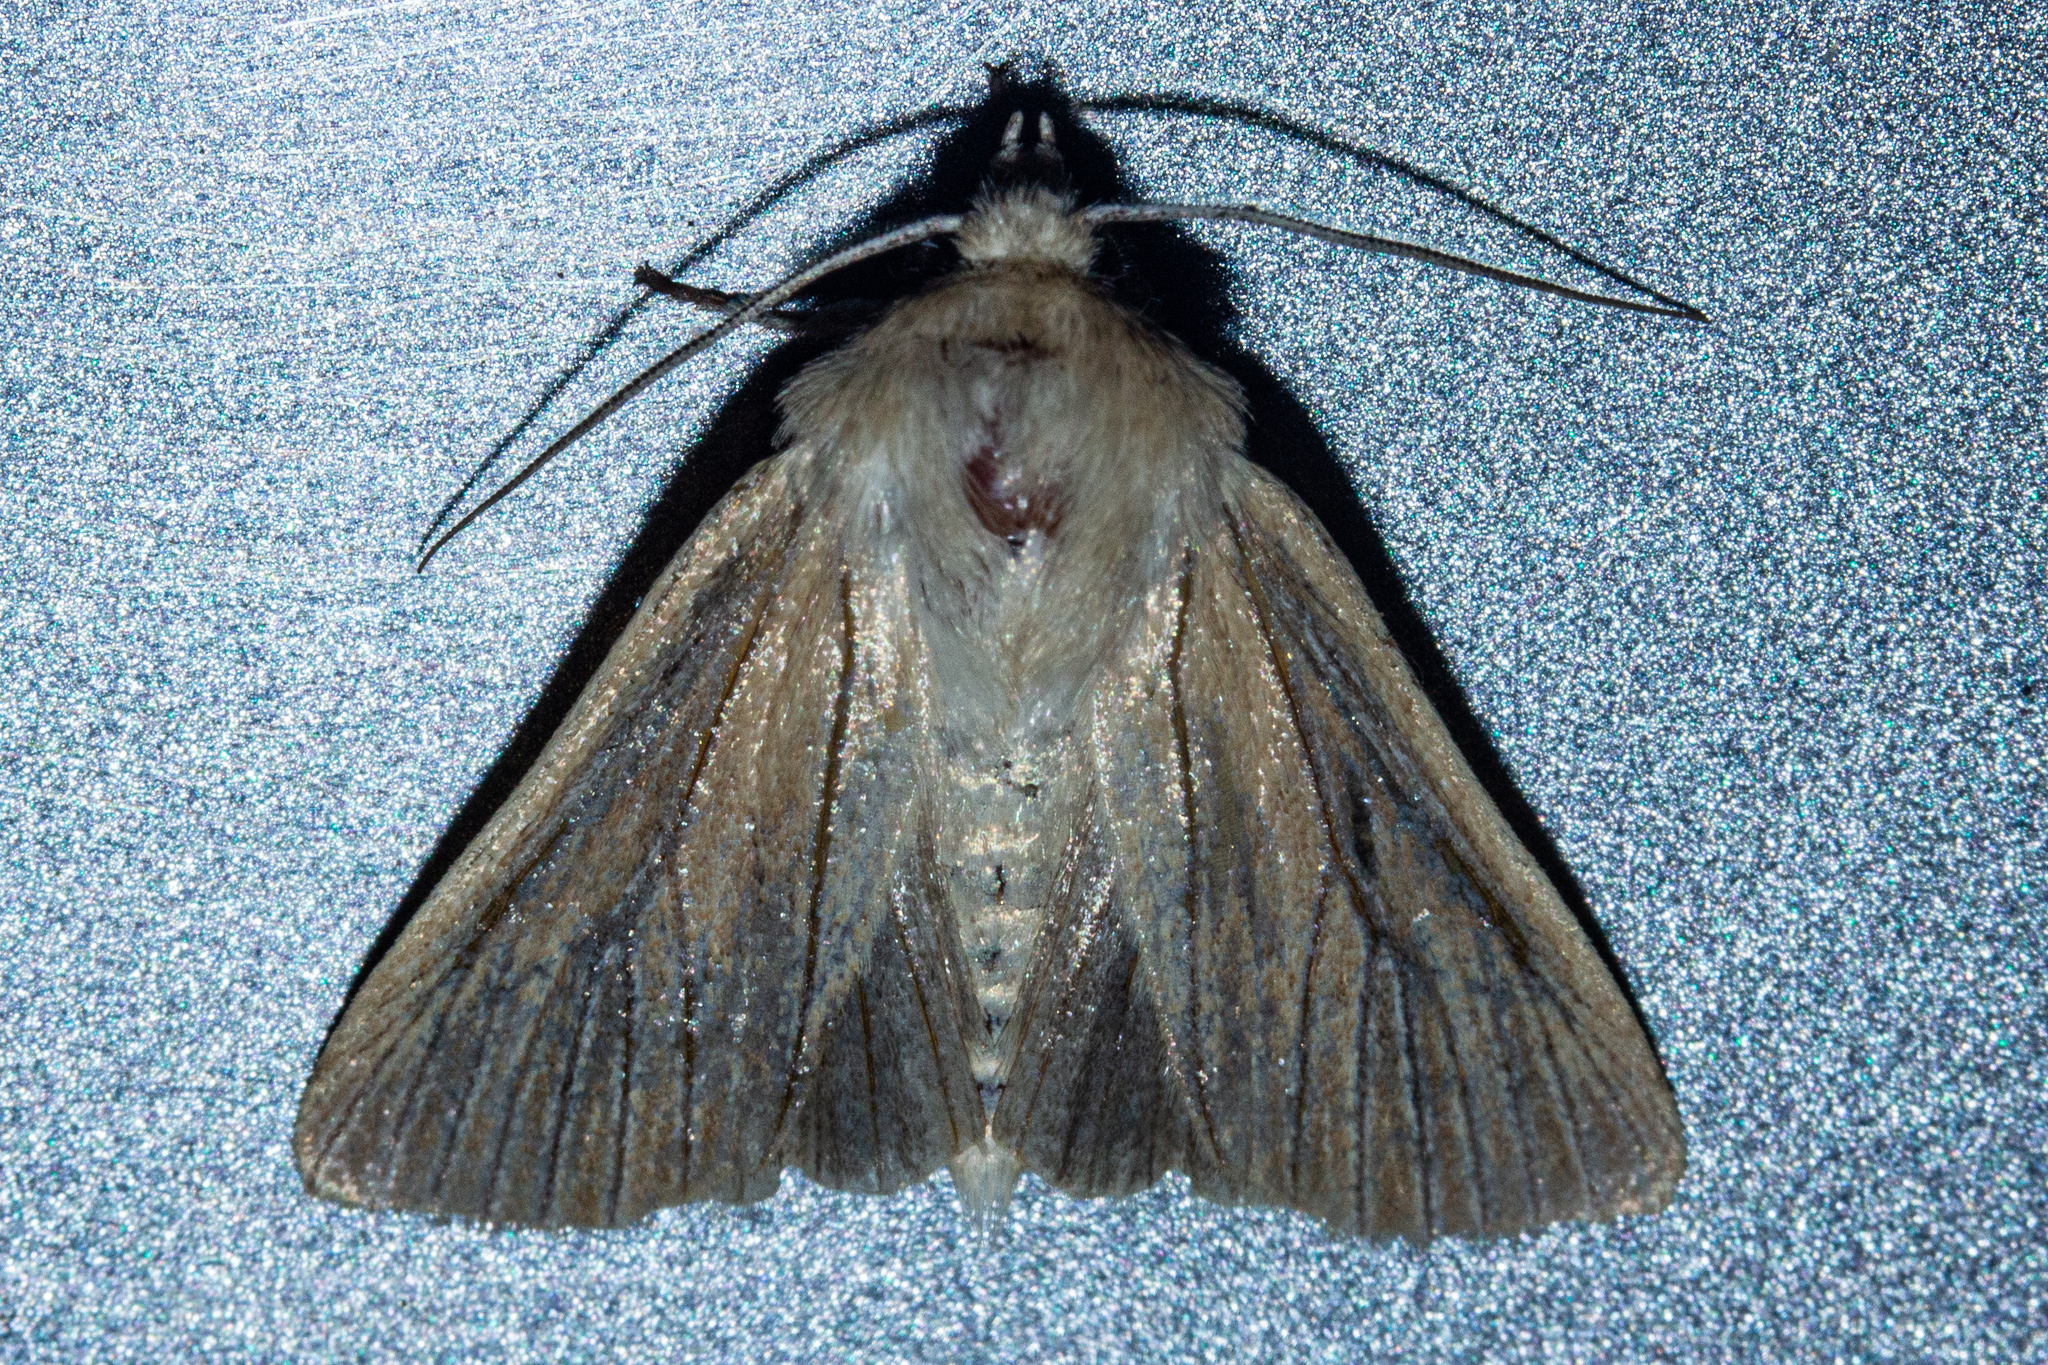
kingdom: Animalia
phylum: Arthropoda
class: Insecta
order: Lepidoptera
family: Noctuidae
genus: Ichneutica
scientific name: Ichneutica arotis
